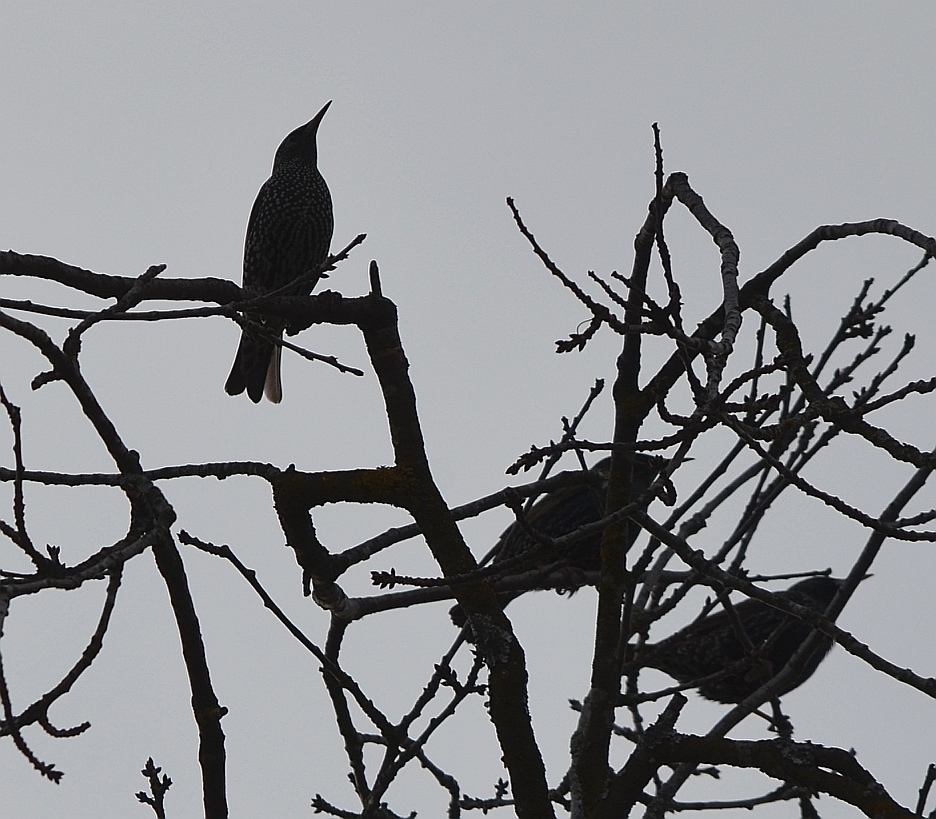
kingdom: Animalia
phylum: Chordata
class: Aves
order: Passeriformes
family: Sturnidae
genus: Sturnus
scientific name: Sturnus vulgaris
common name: Common starling
